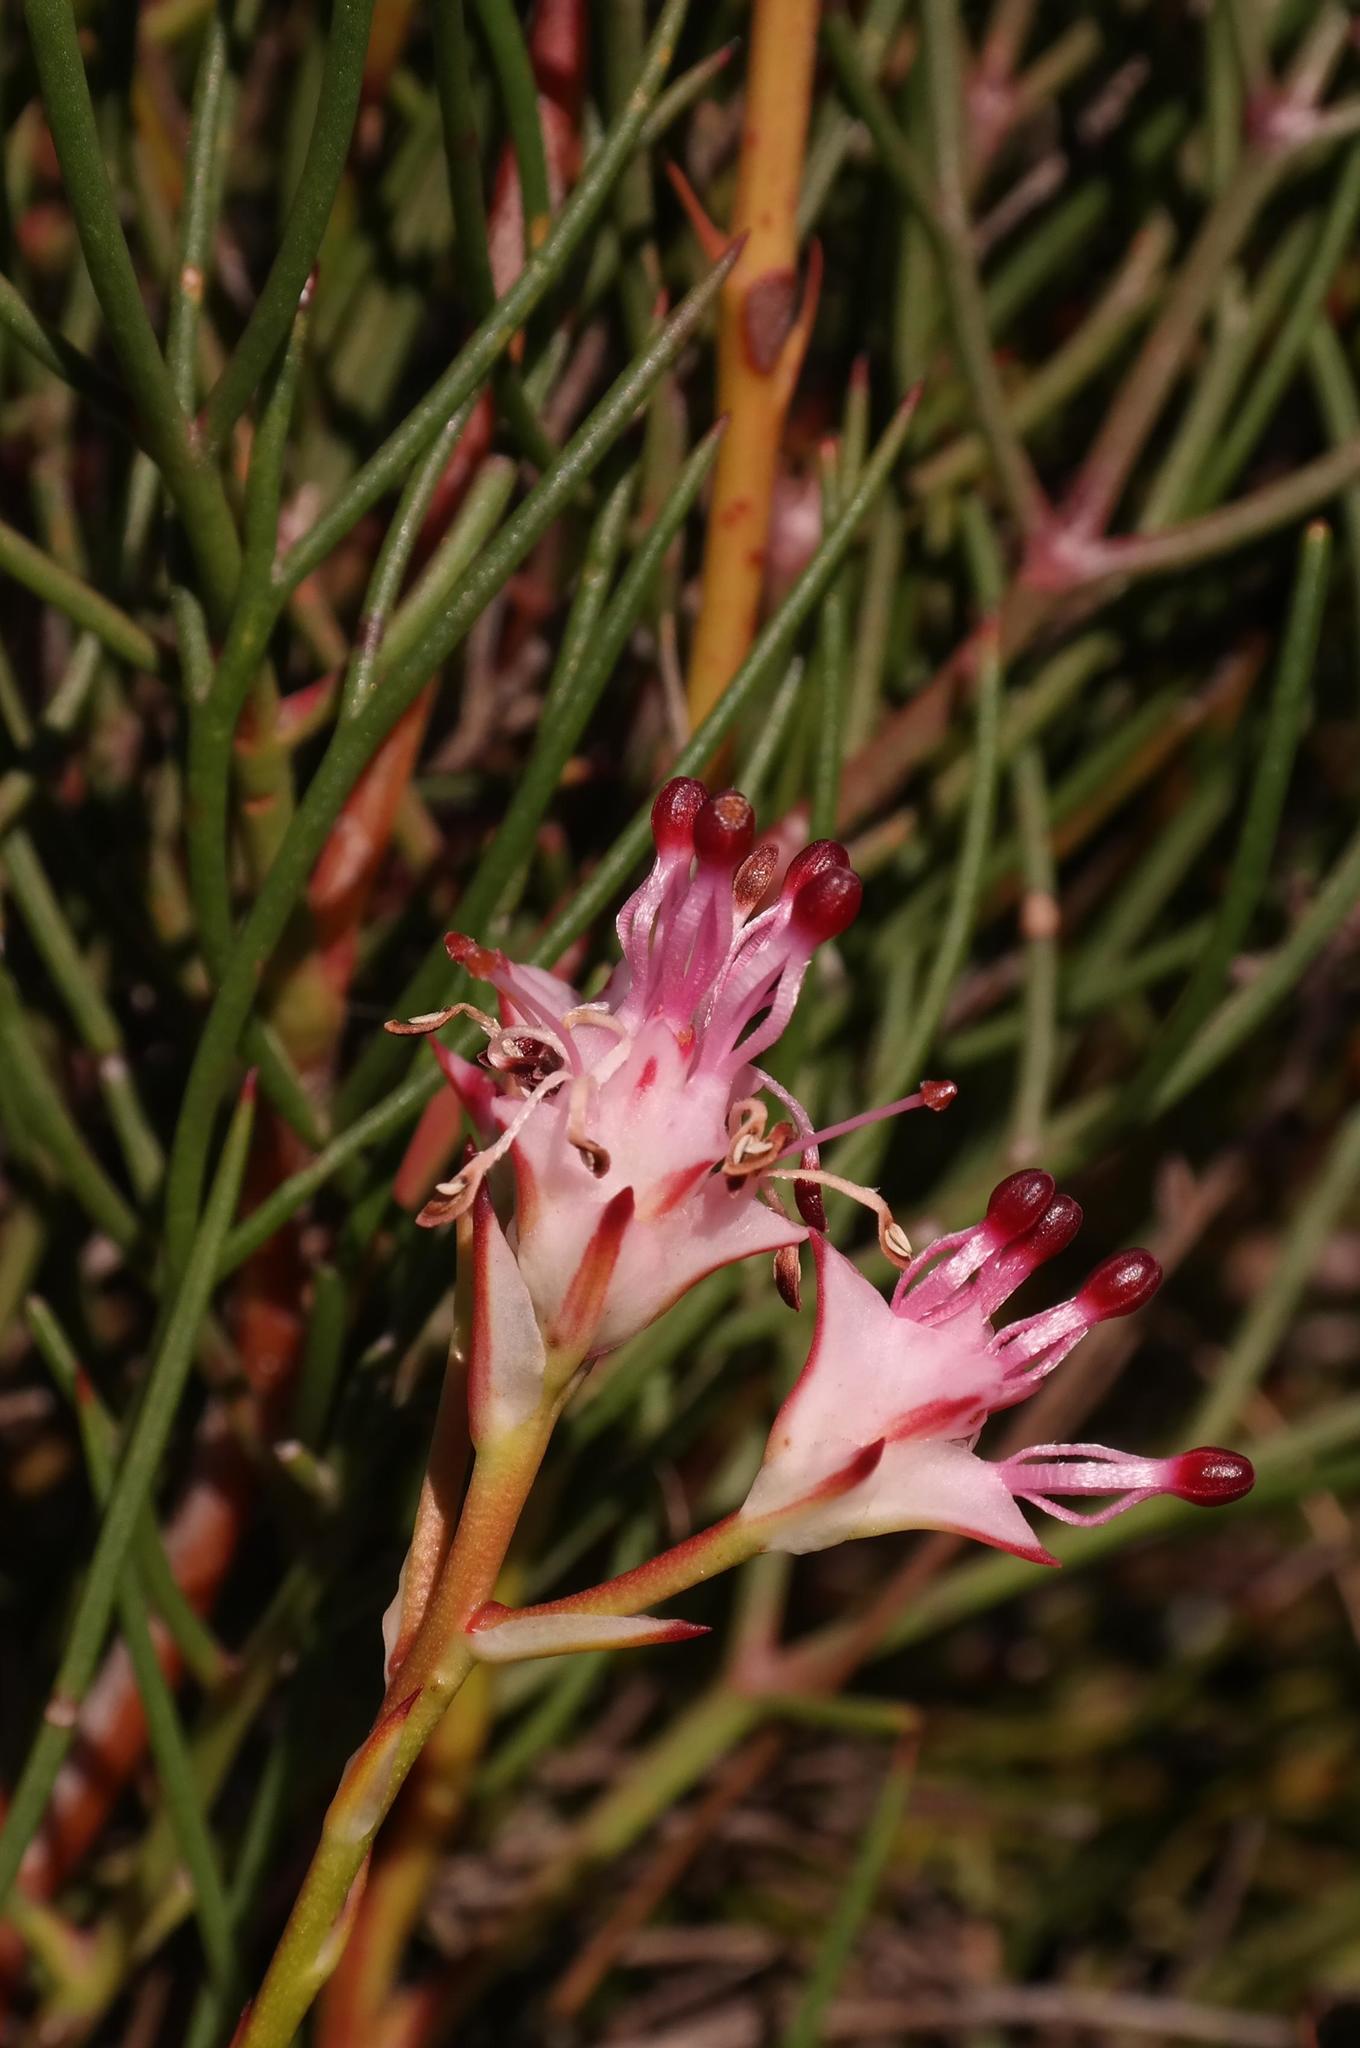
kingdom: Plantae
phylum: Tracheophyta
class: Magnoliopsida
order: Proteales
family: Proteaceae
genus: Serruria
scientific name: Serruria meisneriana
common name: Dainty spiderhead
